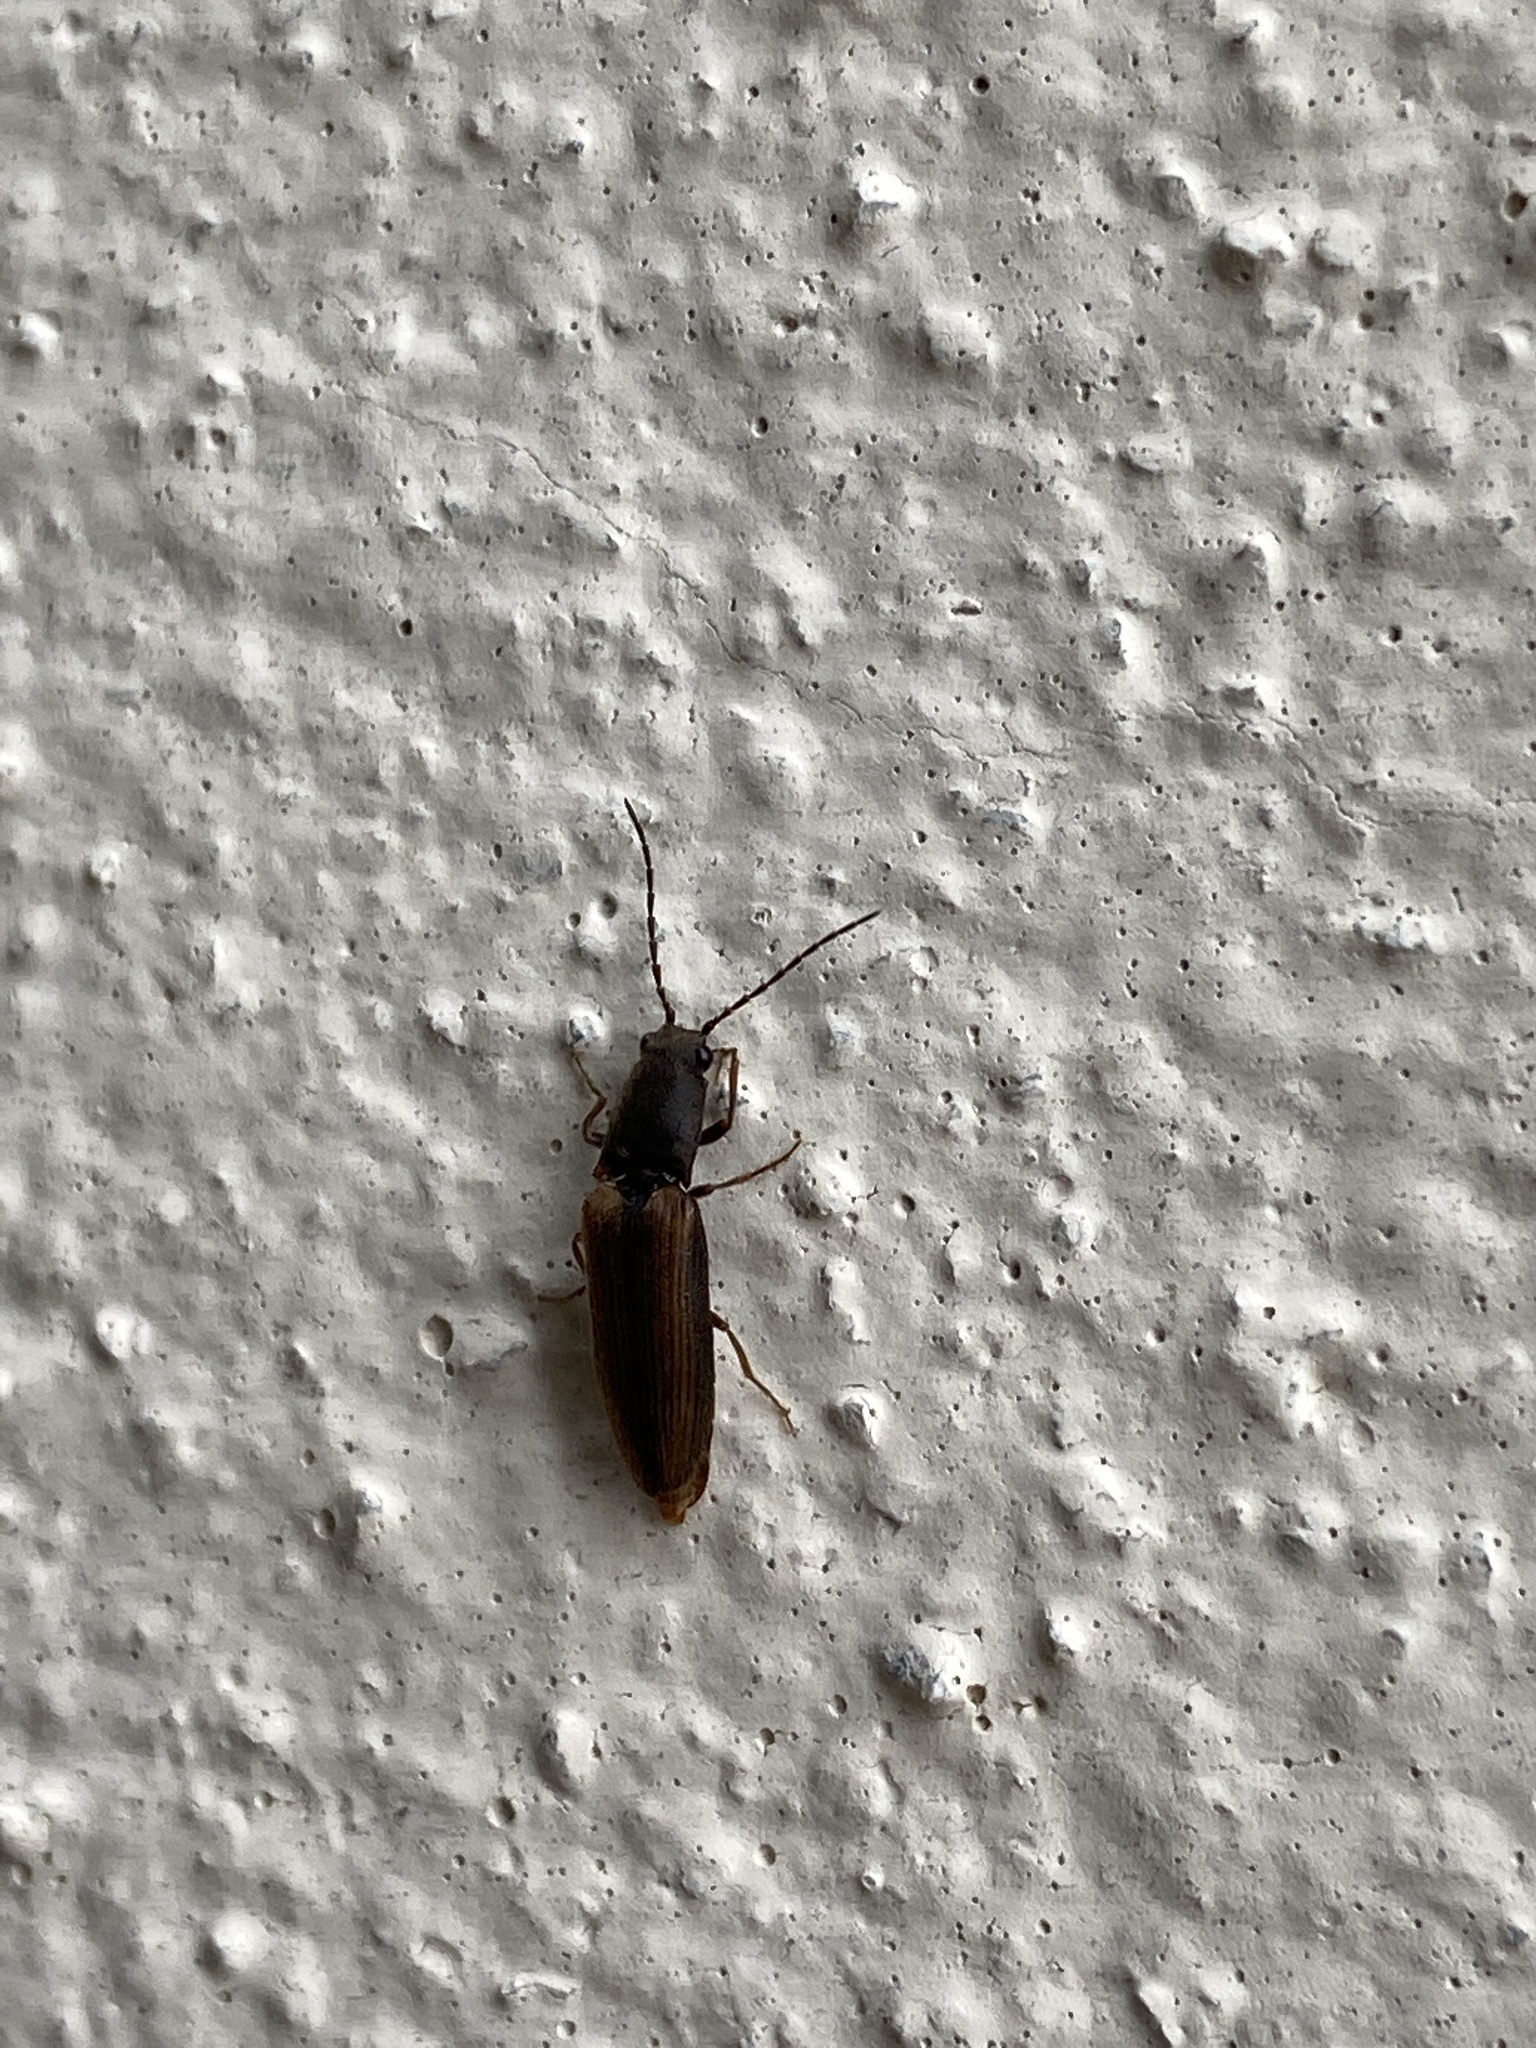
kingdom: Animalia
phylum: Arthropoda
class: Insecta
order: Coleoptera
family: Elateridae
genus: Athous
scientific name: Athous bicolor
